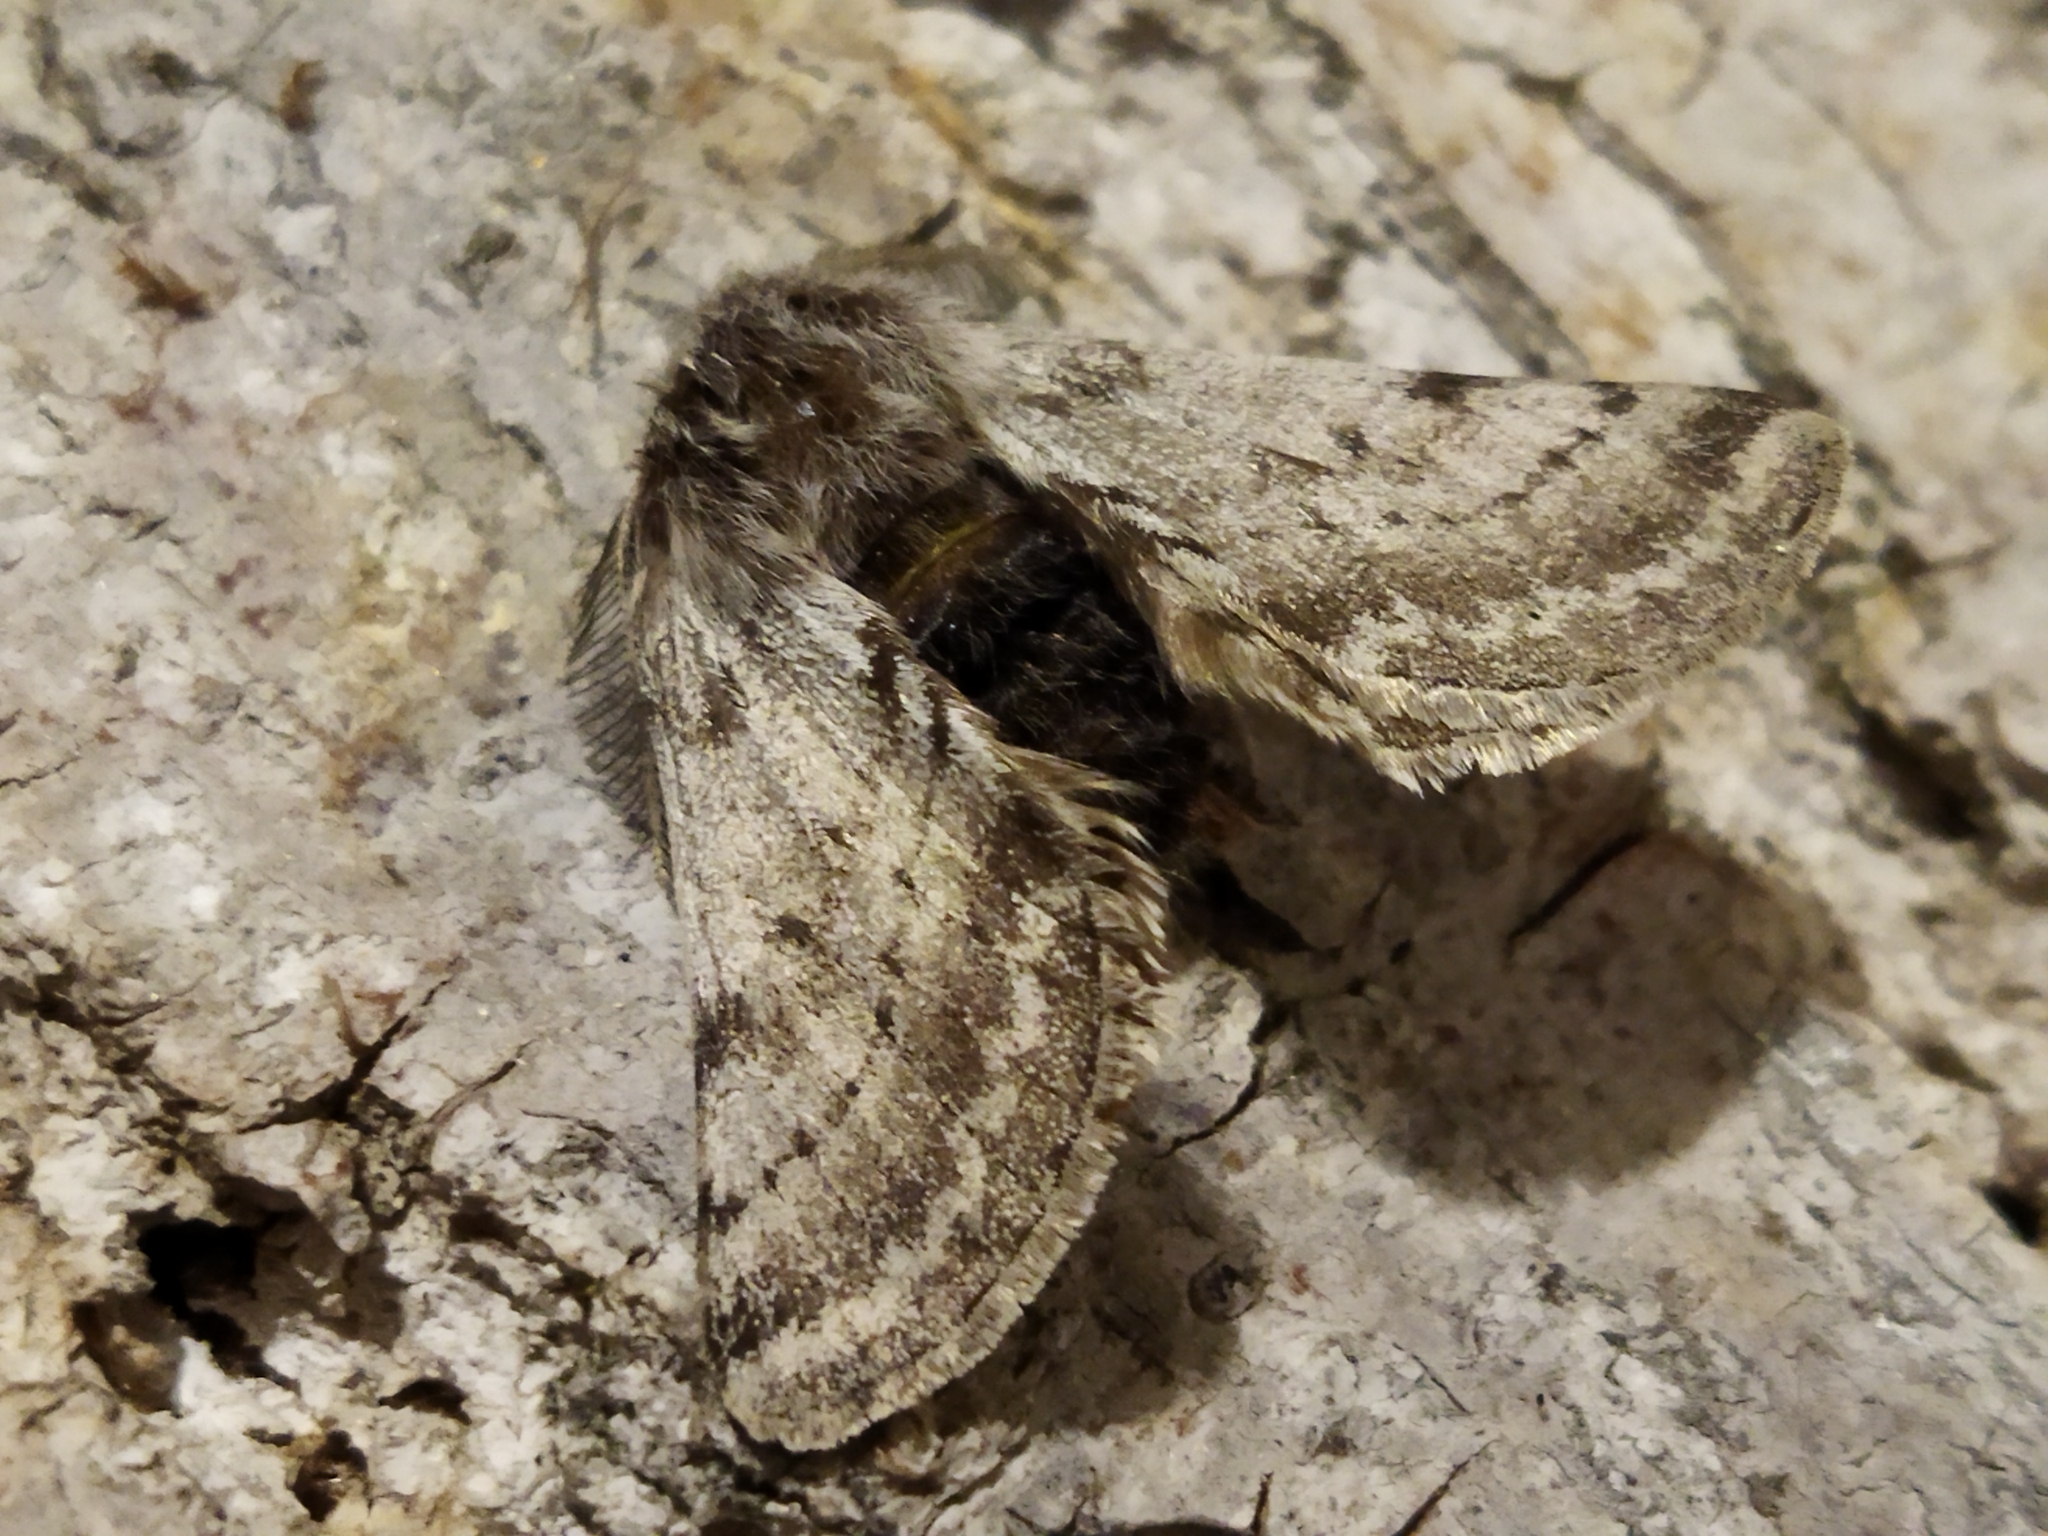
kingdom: Animalia
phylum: Arthropoda
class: Insecta
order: Lepidoptera
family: Geometridae
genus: Lycia
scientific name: Lycia graecarius
